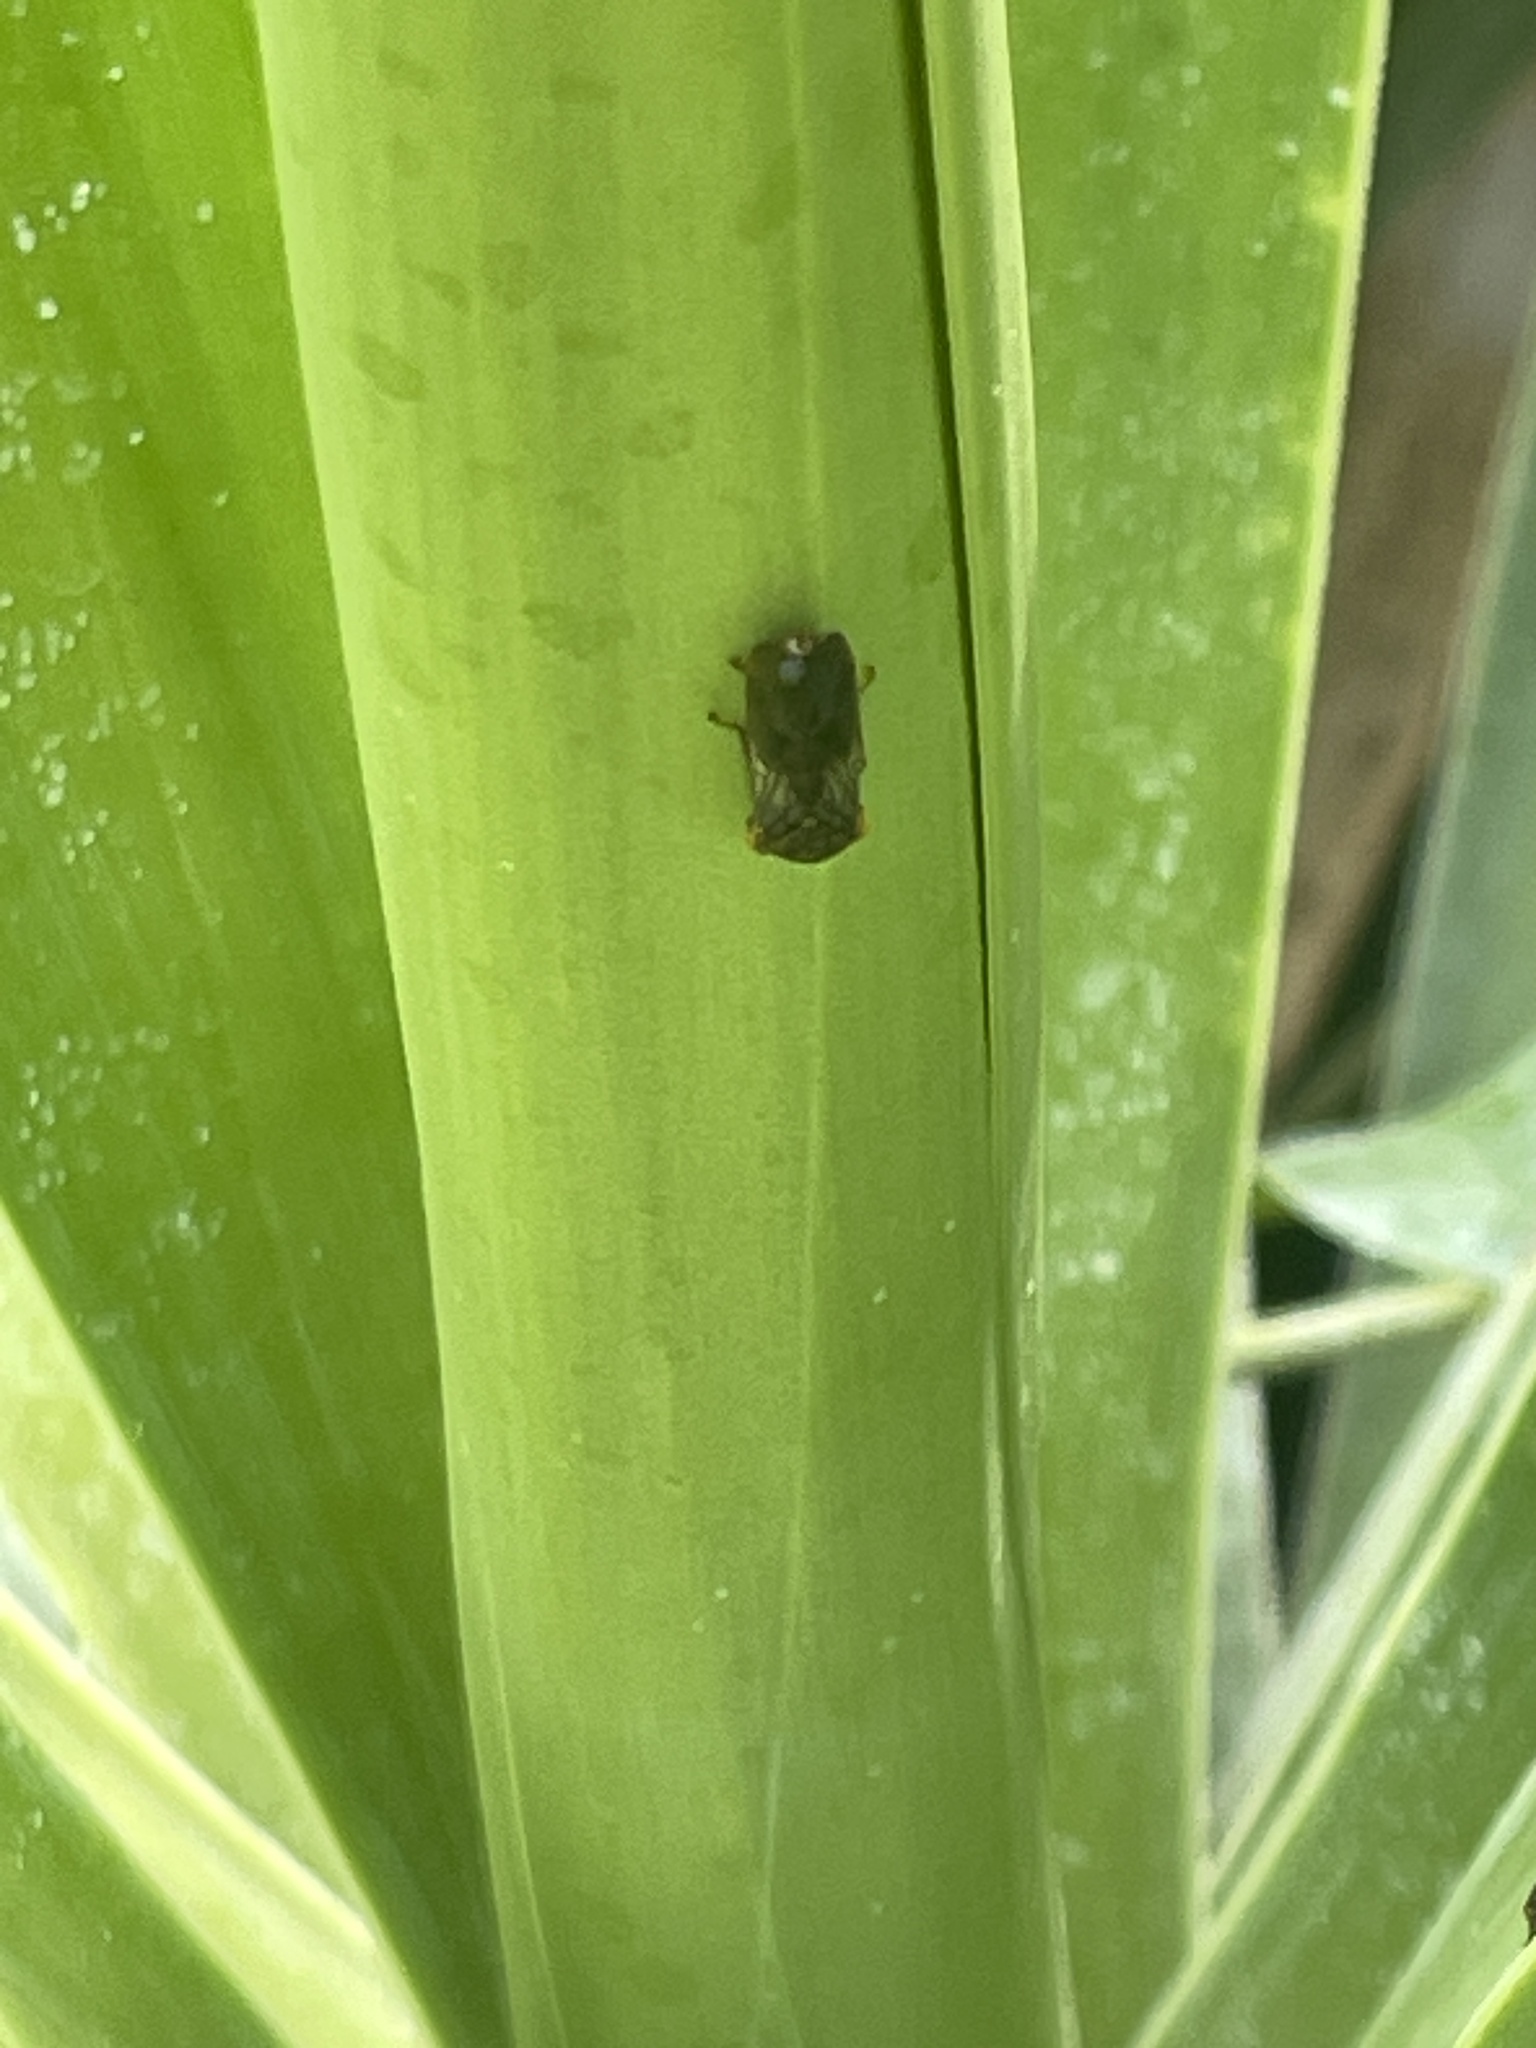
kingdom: Animalia
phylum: Arthropoda
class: Insecta
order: Hemiptera
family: Cicadellidae
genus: Homalodisca
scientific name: Homalodisca vitripennis
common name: Glassy-winged sharpshooter
